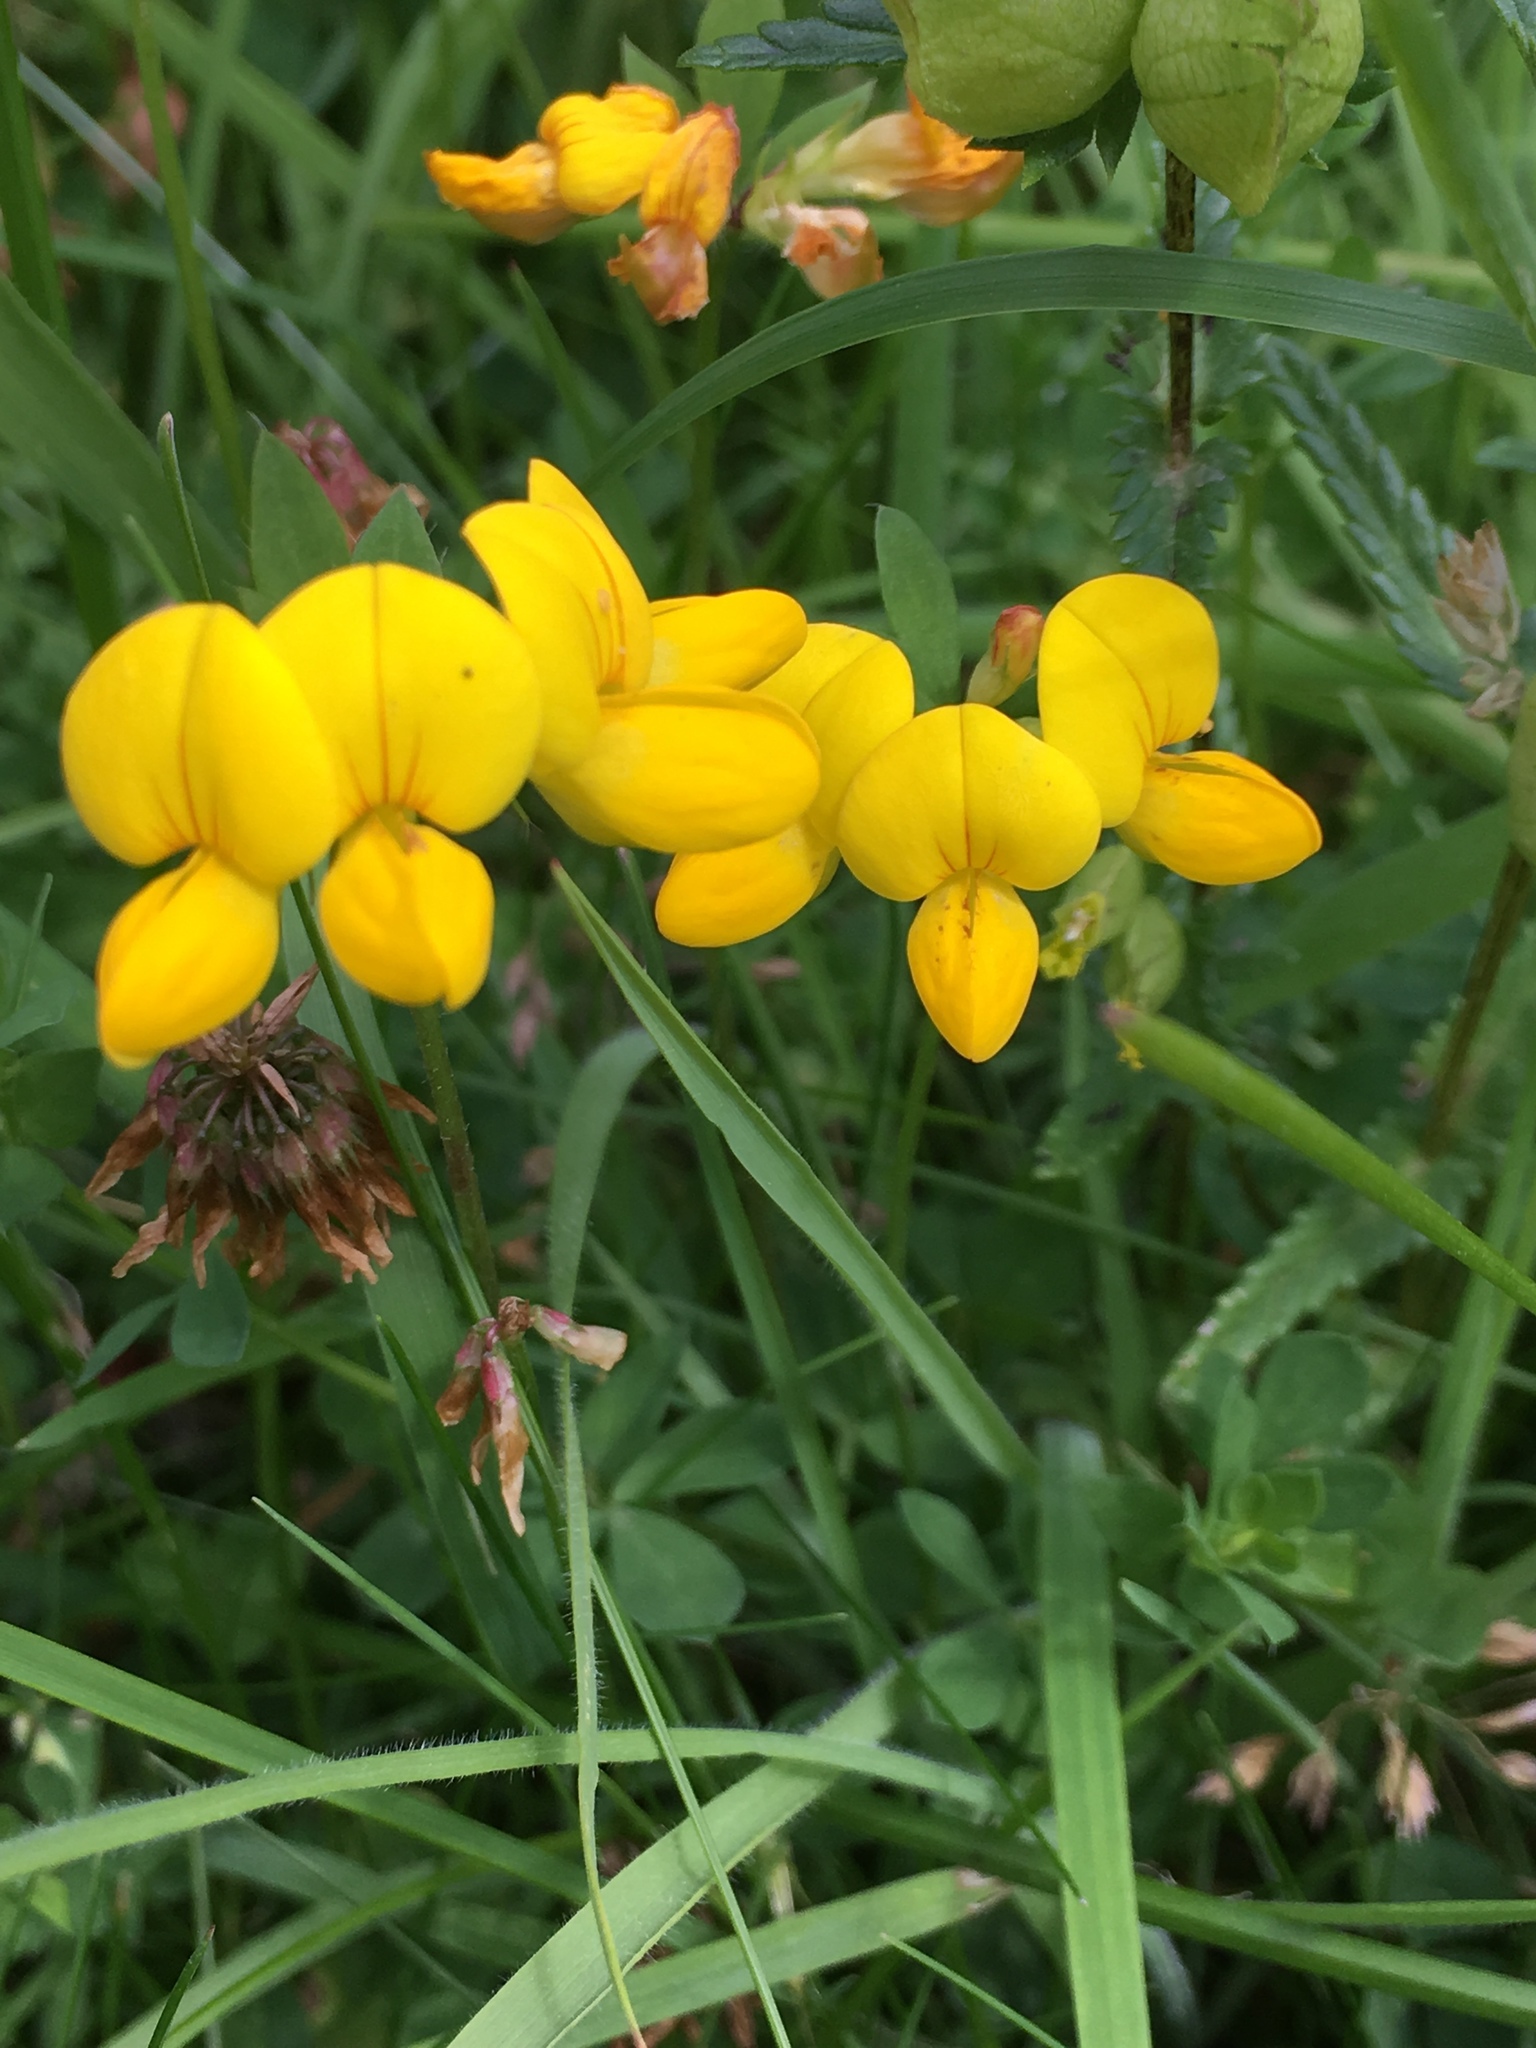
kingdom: Plantae
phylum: Tracheophyta
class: Magnoliopsida
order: Fabales
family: Fabaceae
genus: Lotus
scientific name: Lotus corniculatus
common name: Common bird's-foot-trefoil
